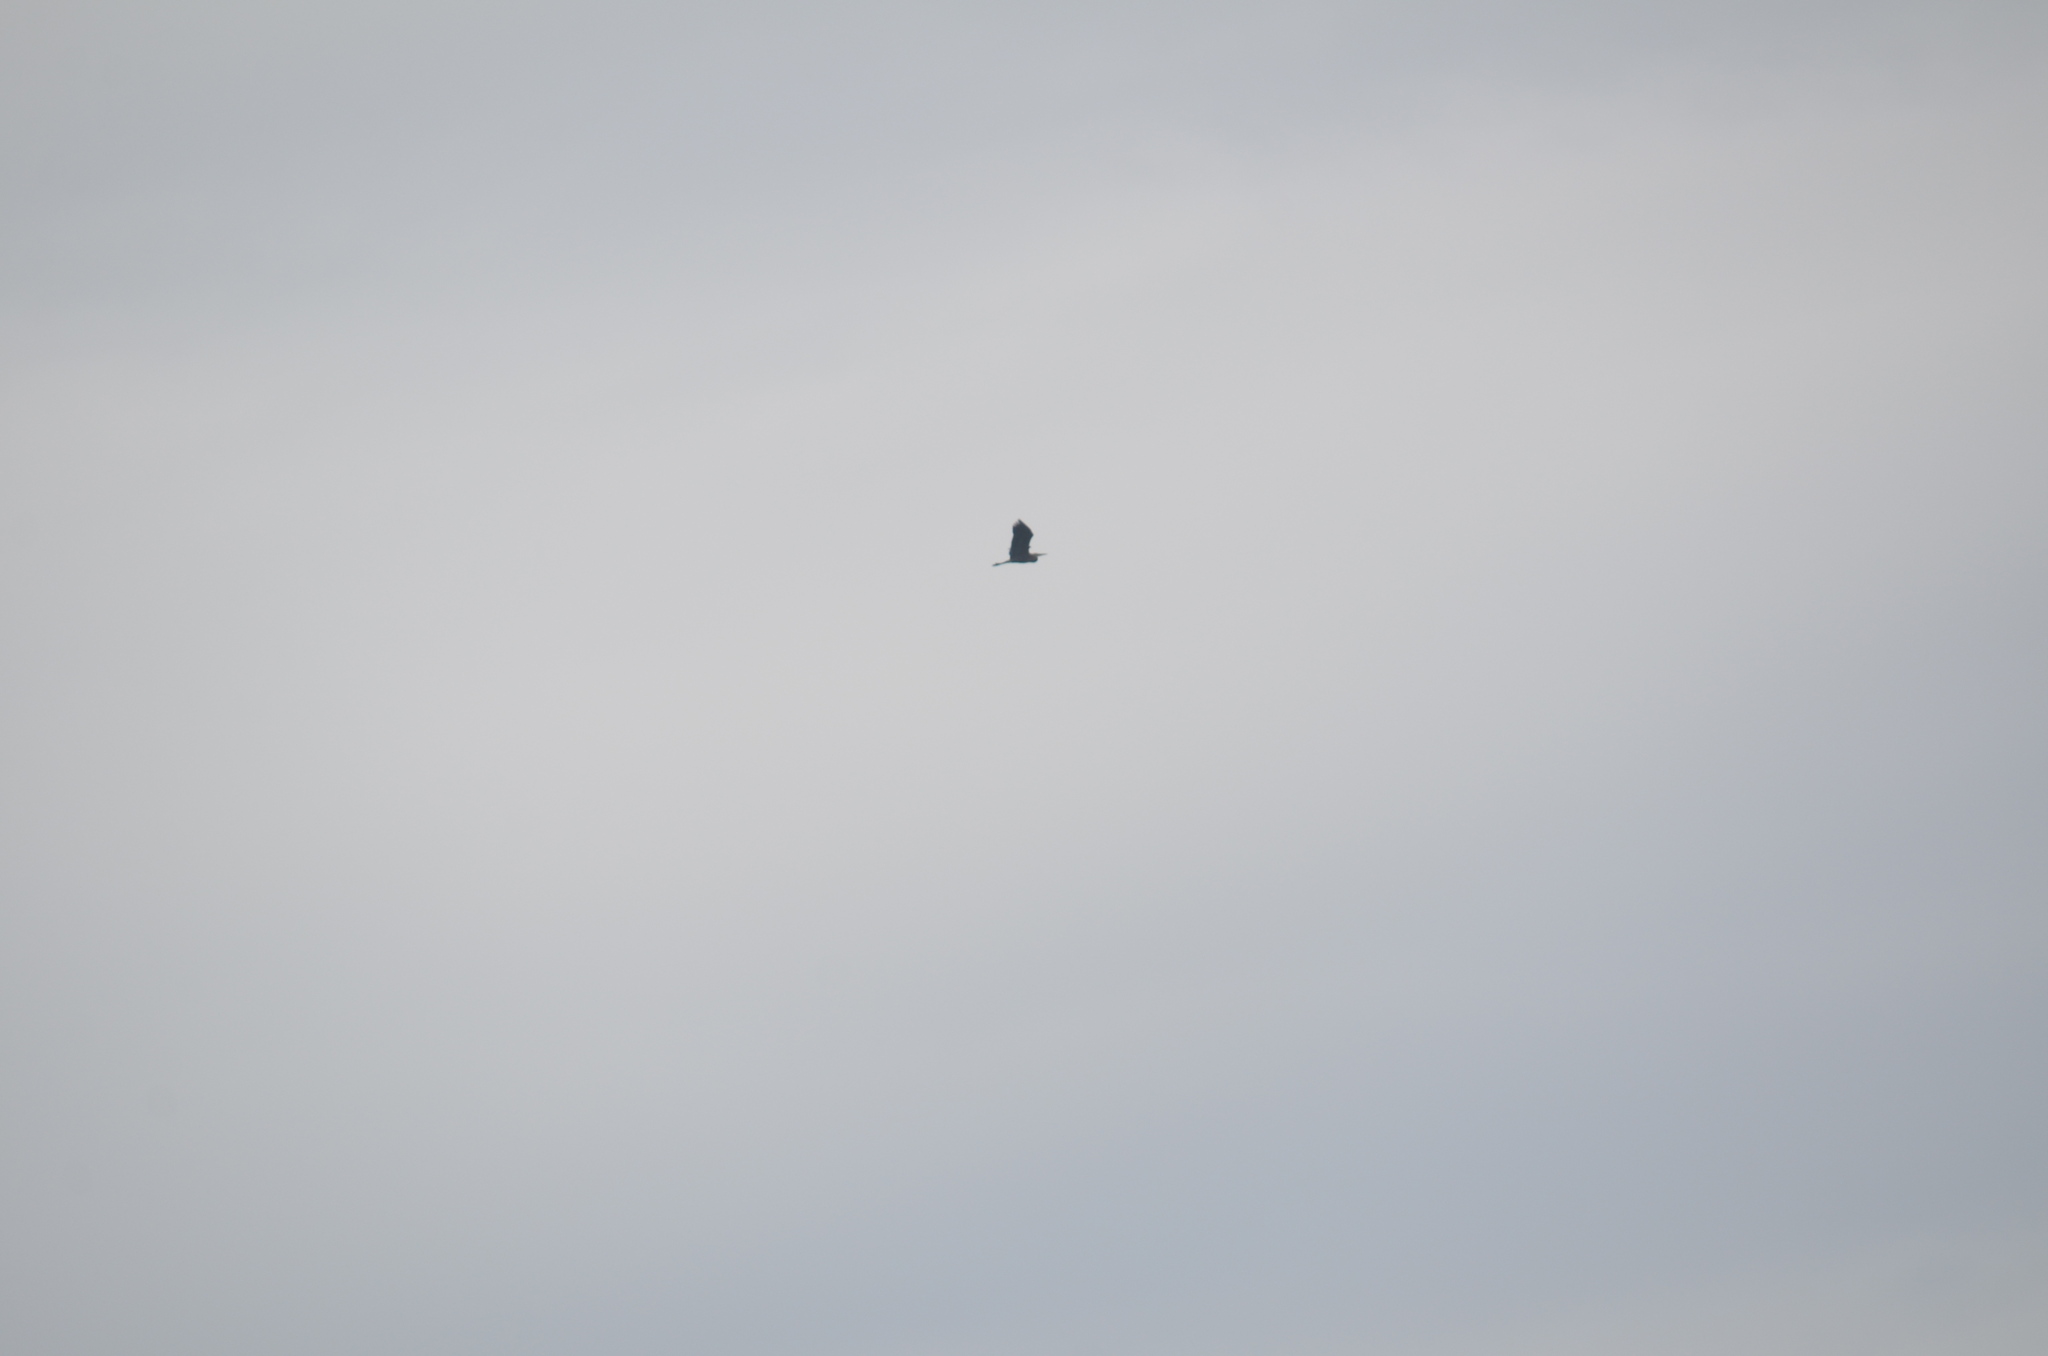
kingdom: Animalia
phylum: Chordata
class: Aves
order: Pelecaniformes
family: Ardeidae
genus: Ardea
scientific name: Ardea herodias
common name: Great blue heron
